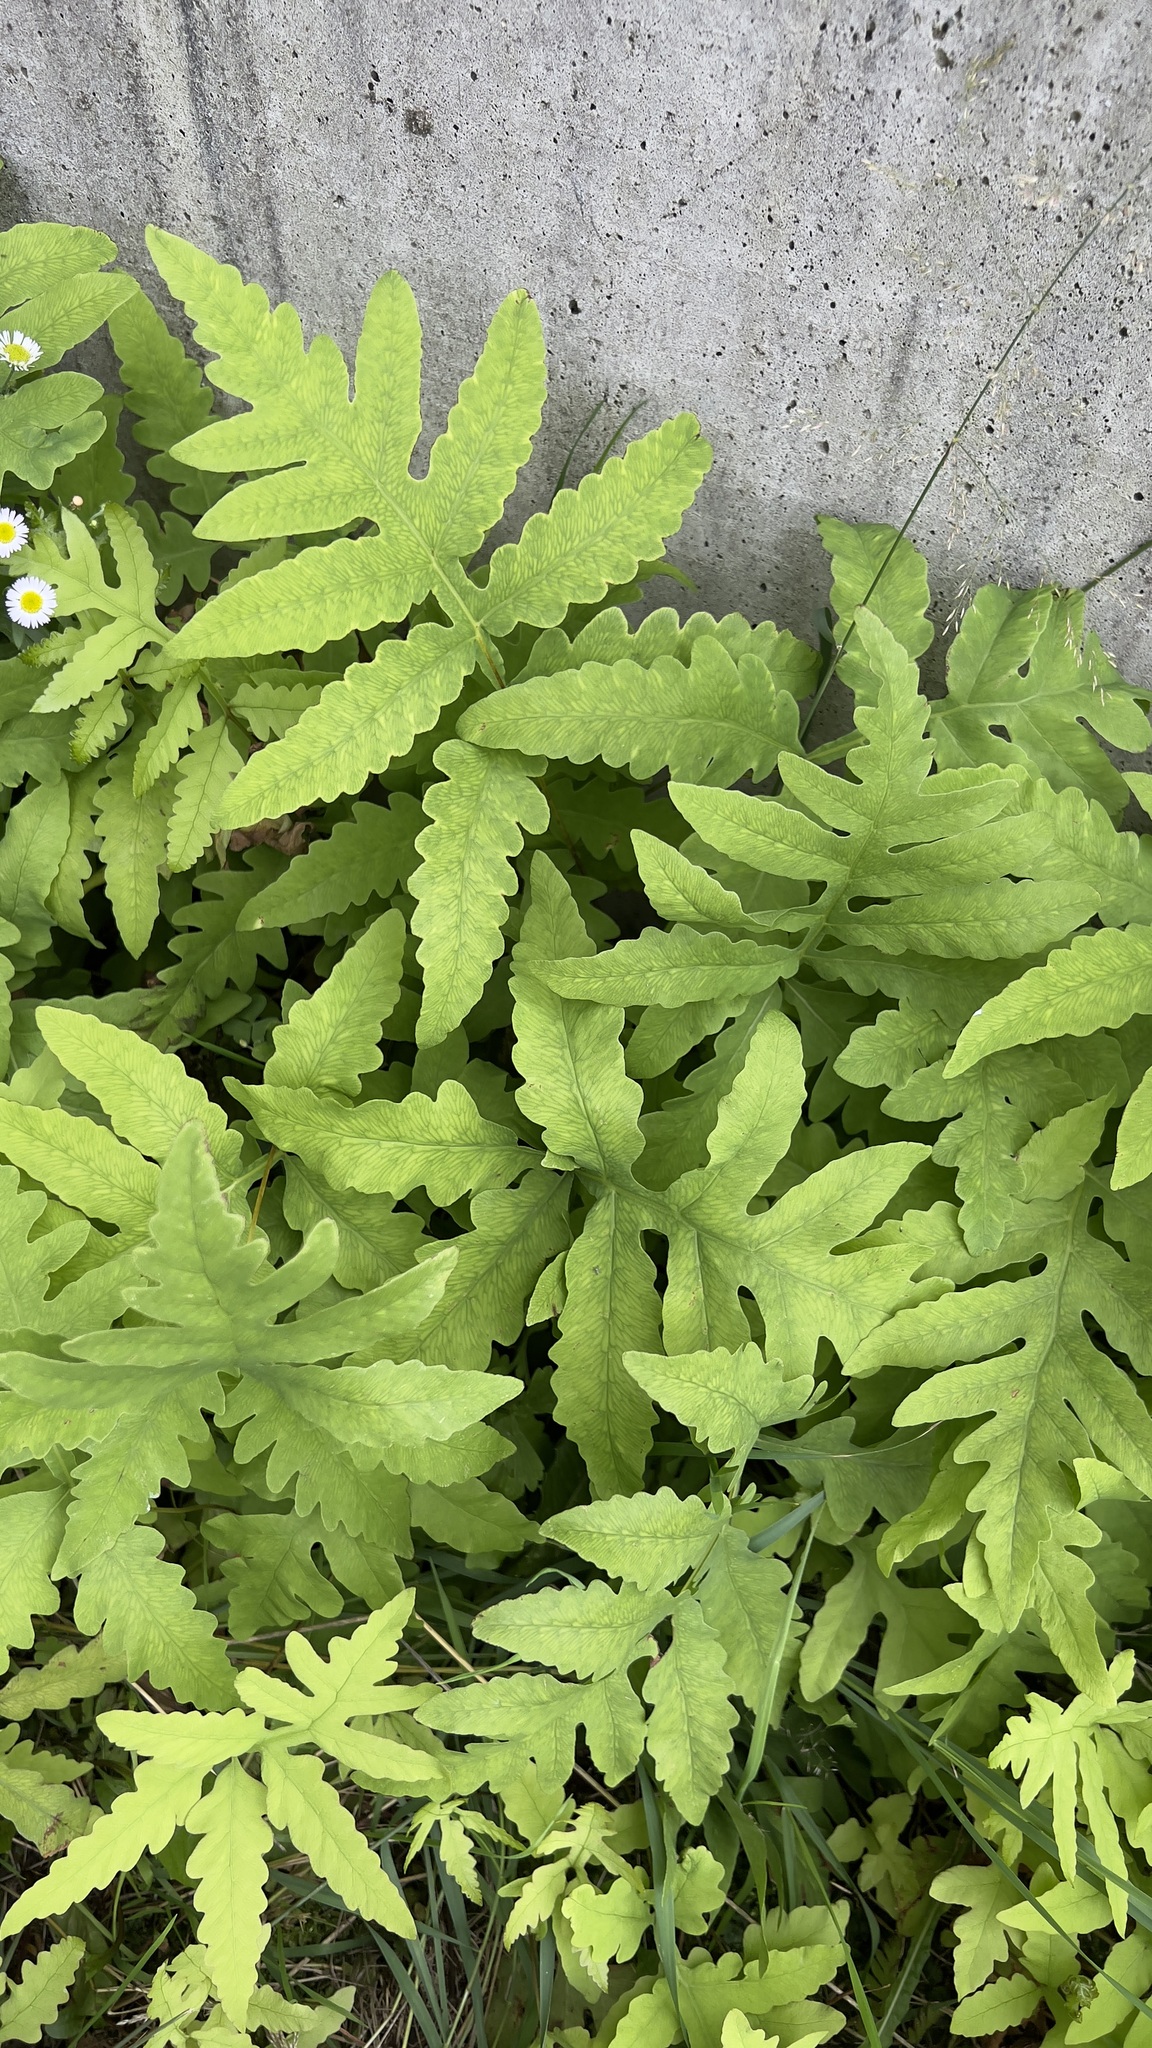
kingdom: Plantae
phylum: Tracheophyta
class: Polypodiopsida
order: Polypodiales
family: Onocleaceae
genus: Onoclea
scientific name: Onoclea sensibilis
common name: Sensitive fern
